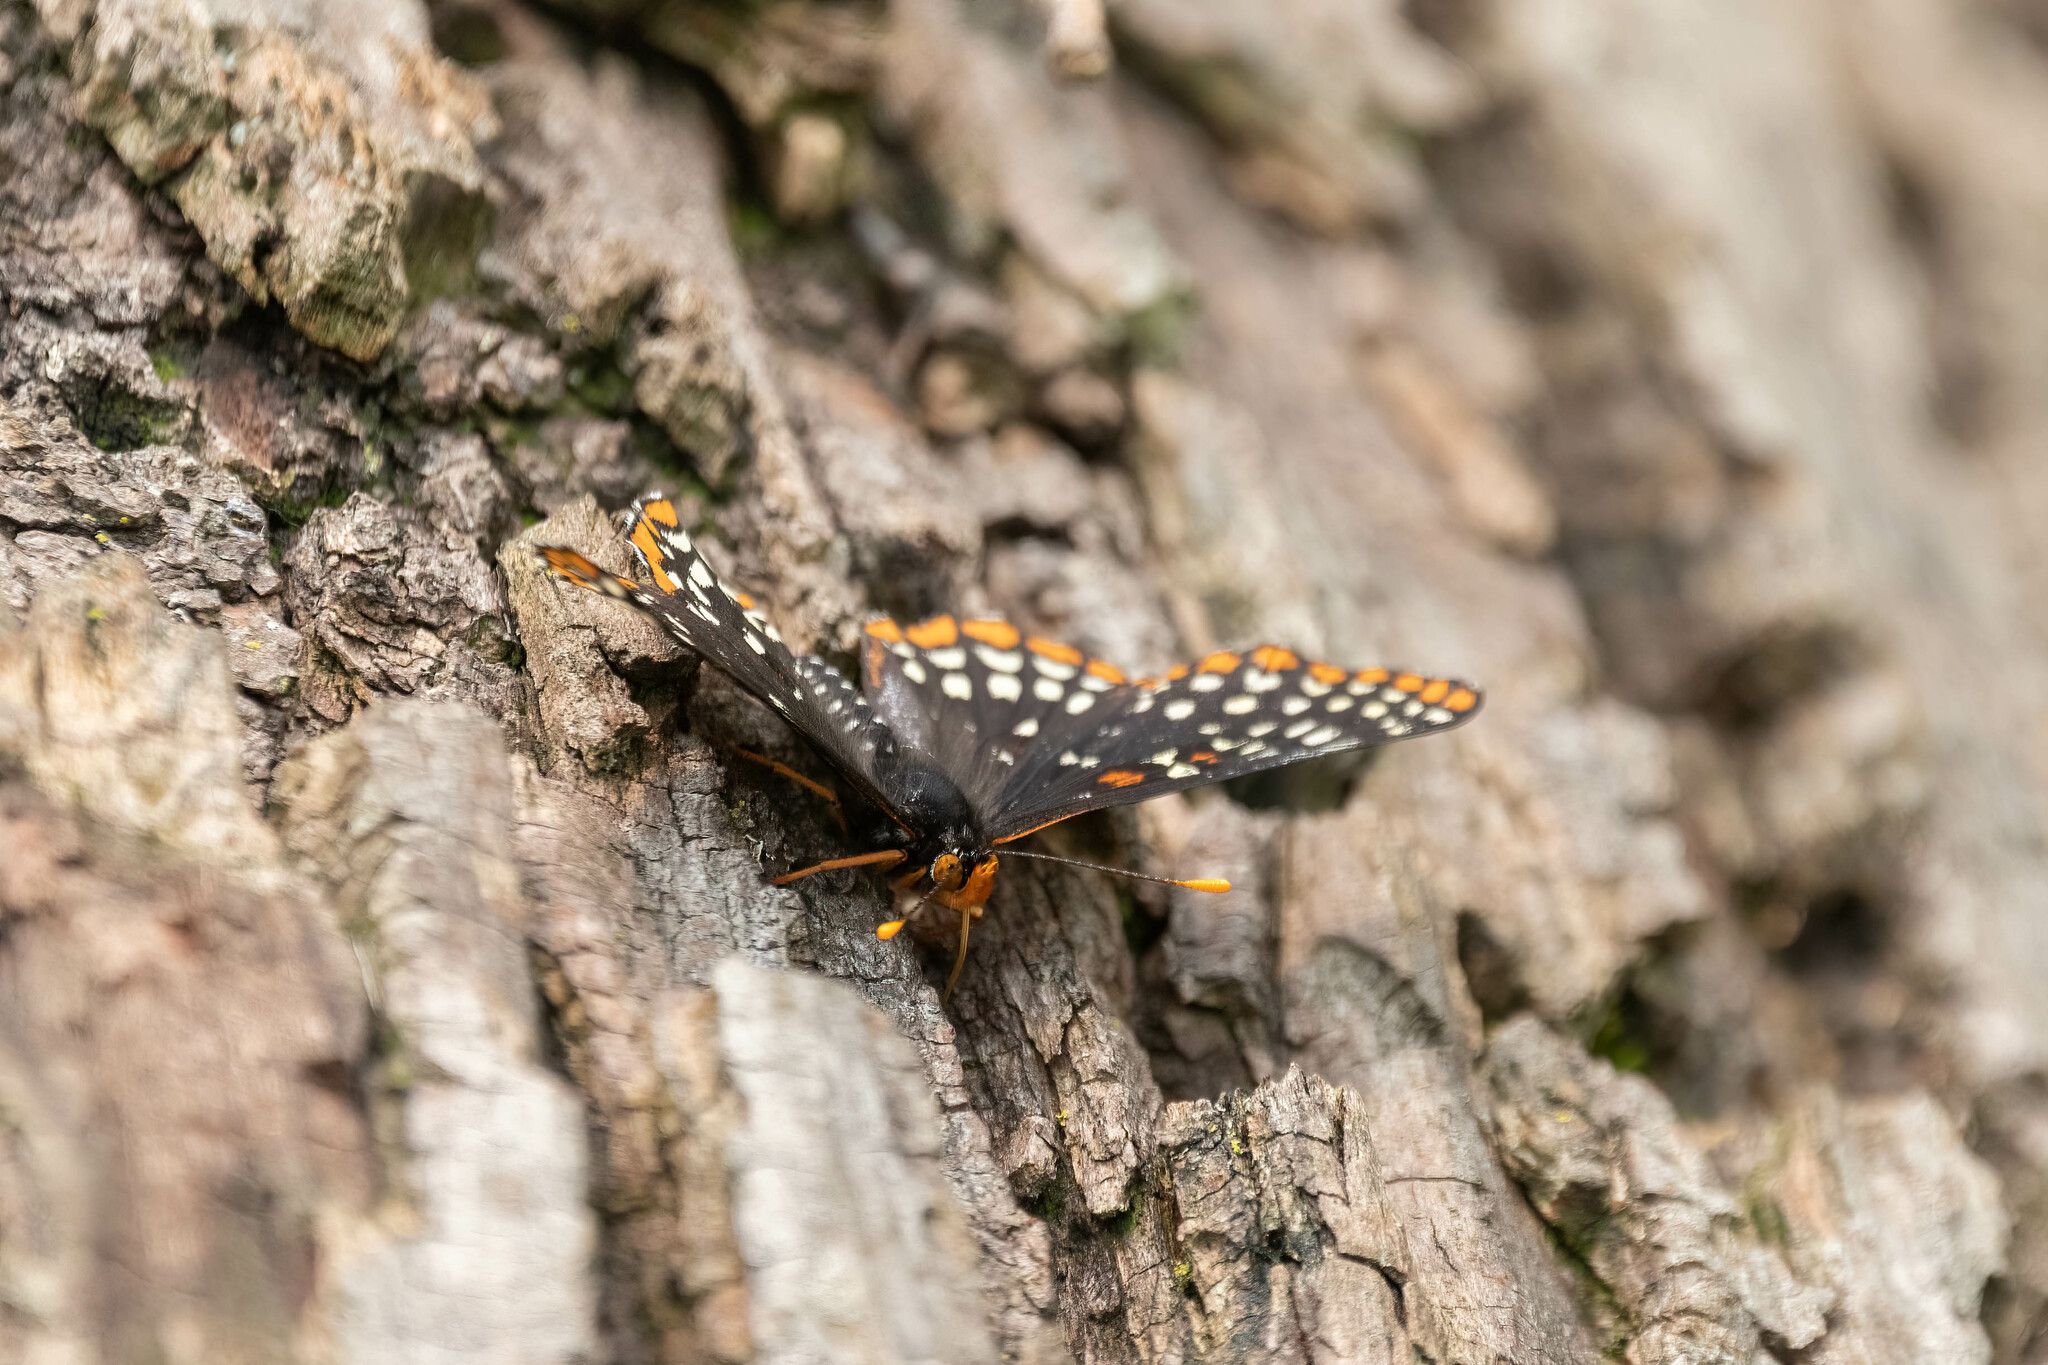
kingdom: Animalia
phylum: Arthropoda
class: Insecta
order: Lepidoptera
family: Nymphalidae
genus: Euphydryas
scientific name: Euphydryas phaeton
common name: Baltimore checkerspot
